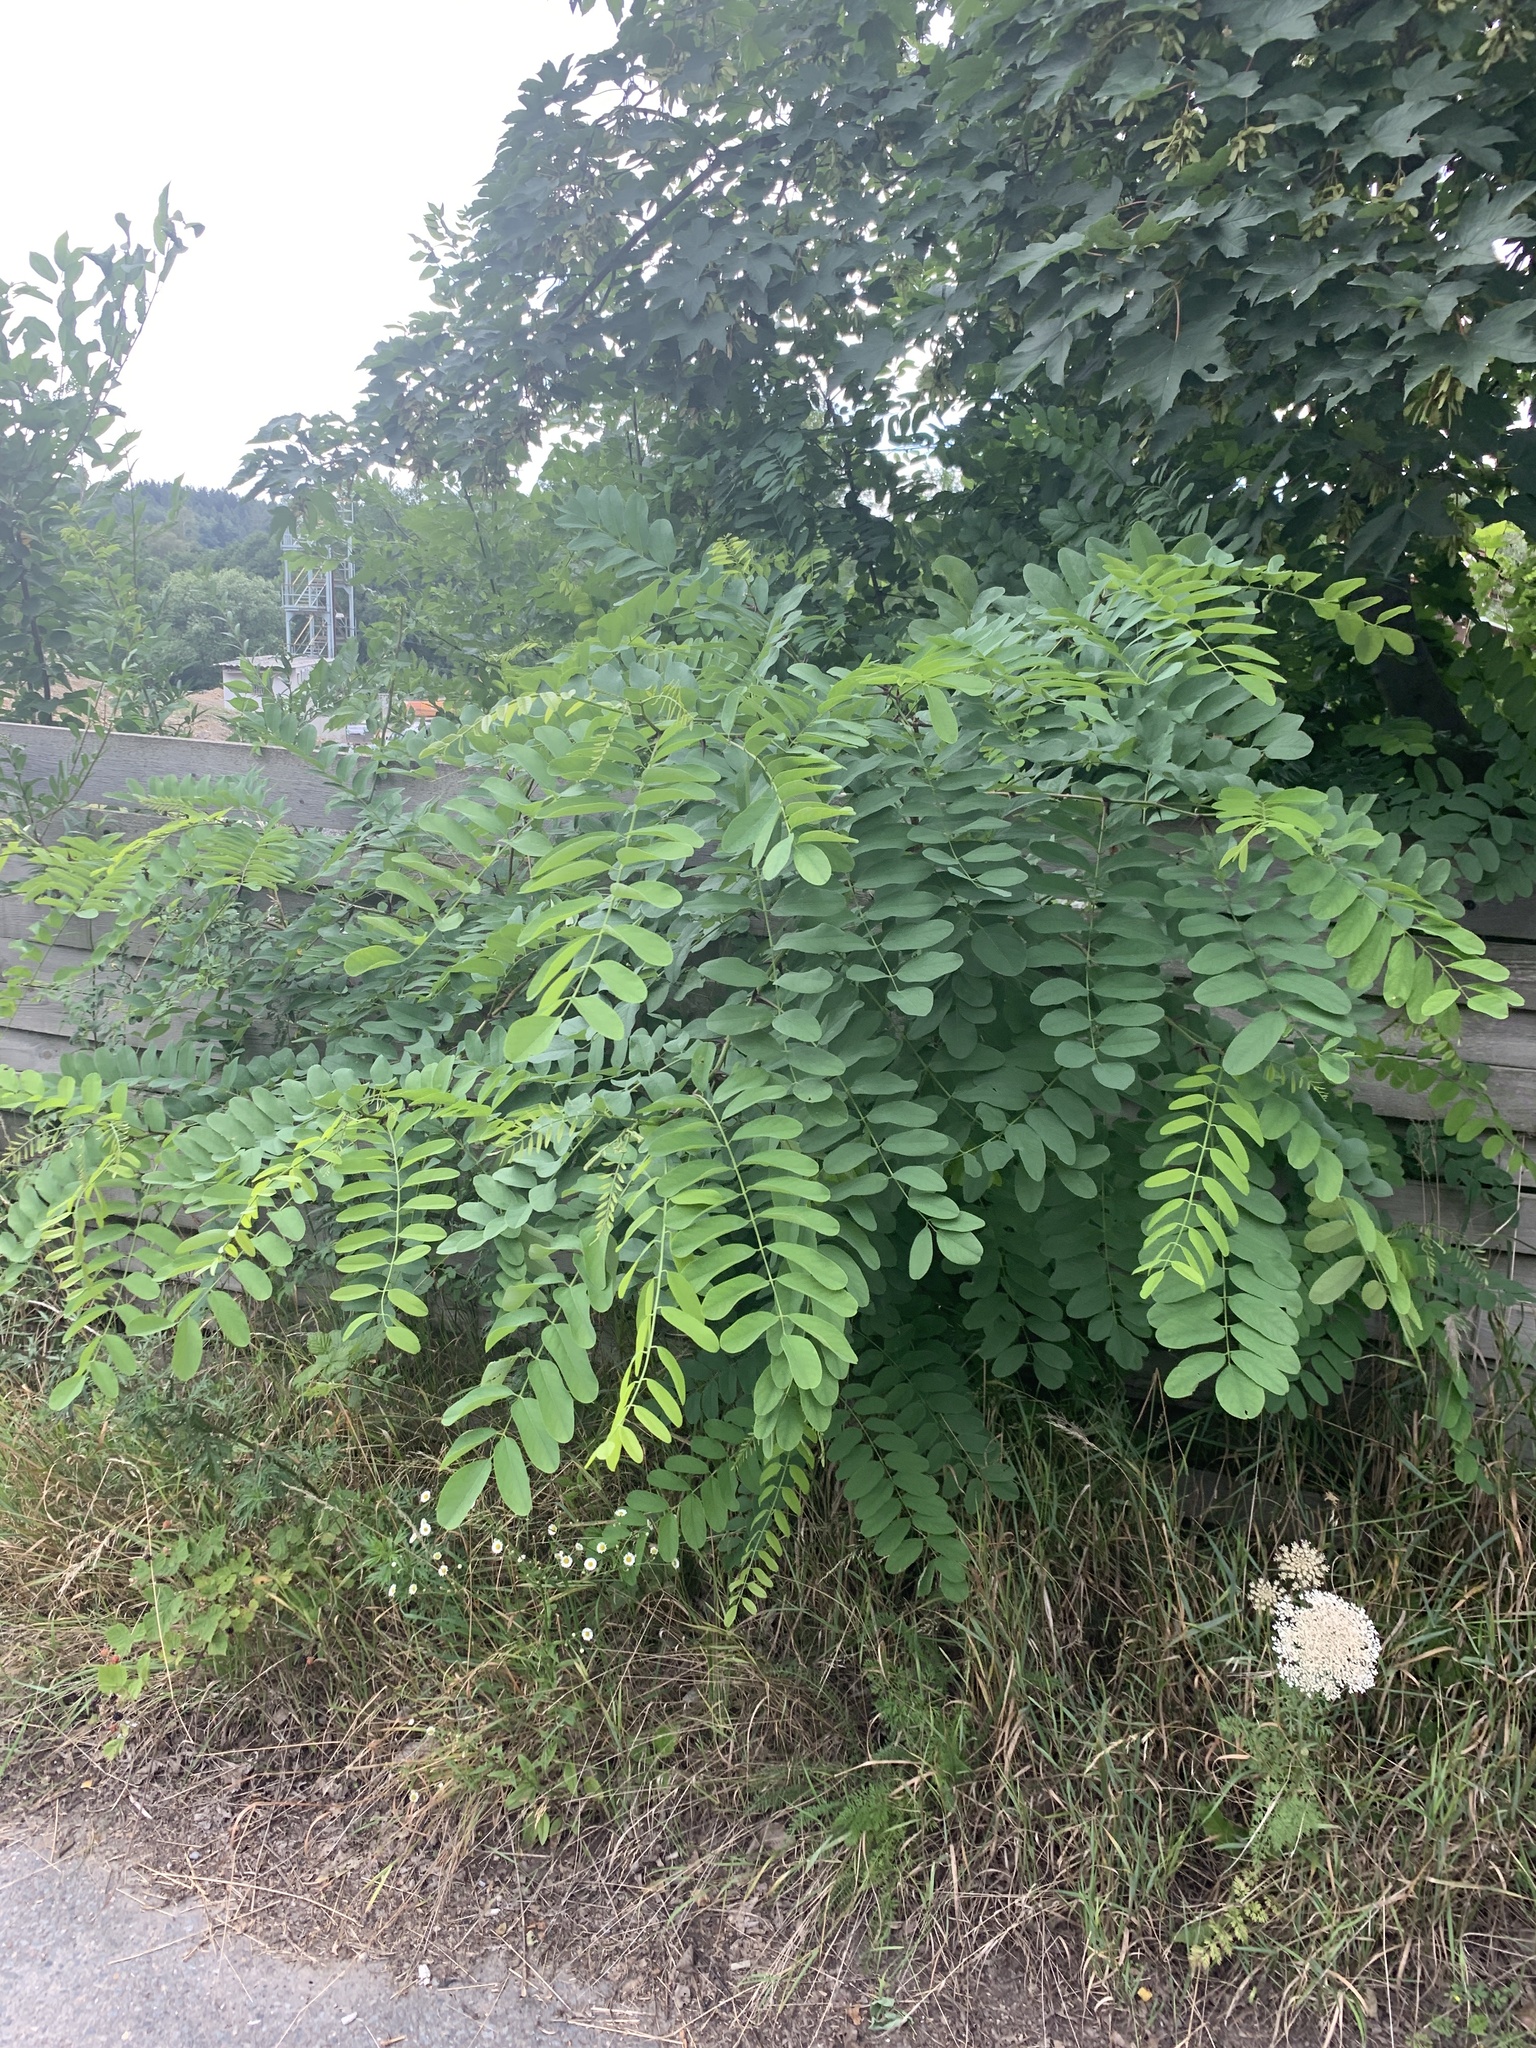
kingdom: Plantae
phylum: Tracheophyta
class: Magnoliopsida
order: Fabales
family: Fabaceae
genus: Robinia
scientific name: Robinia pseudoacacia
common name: Black locust
